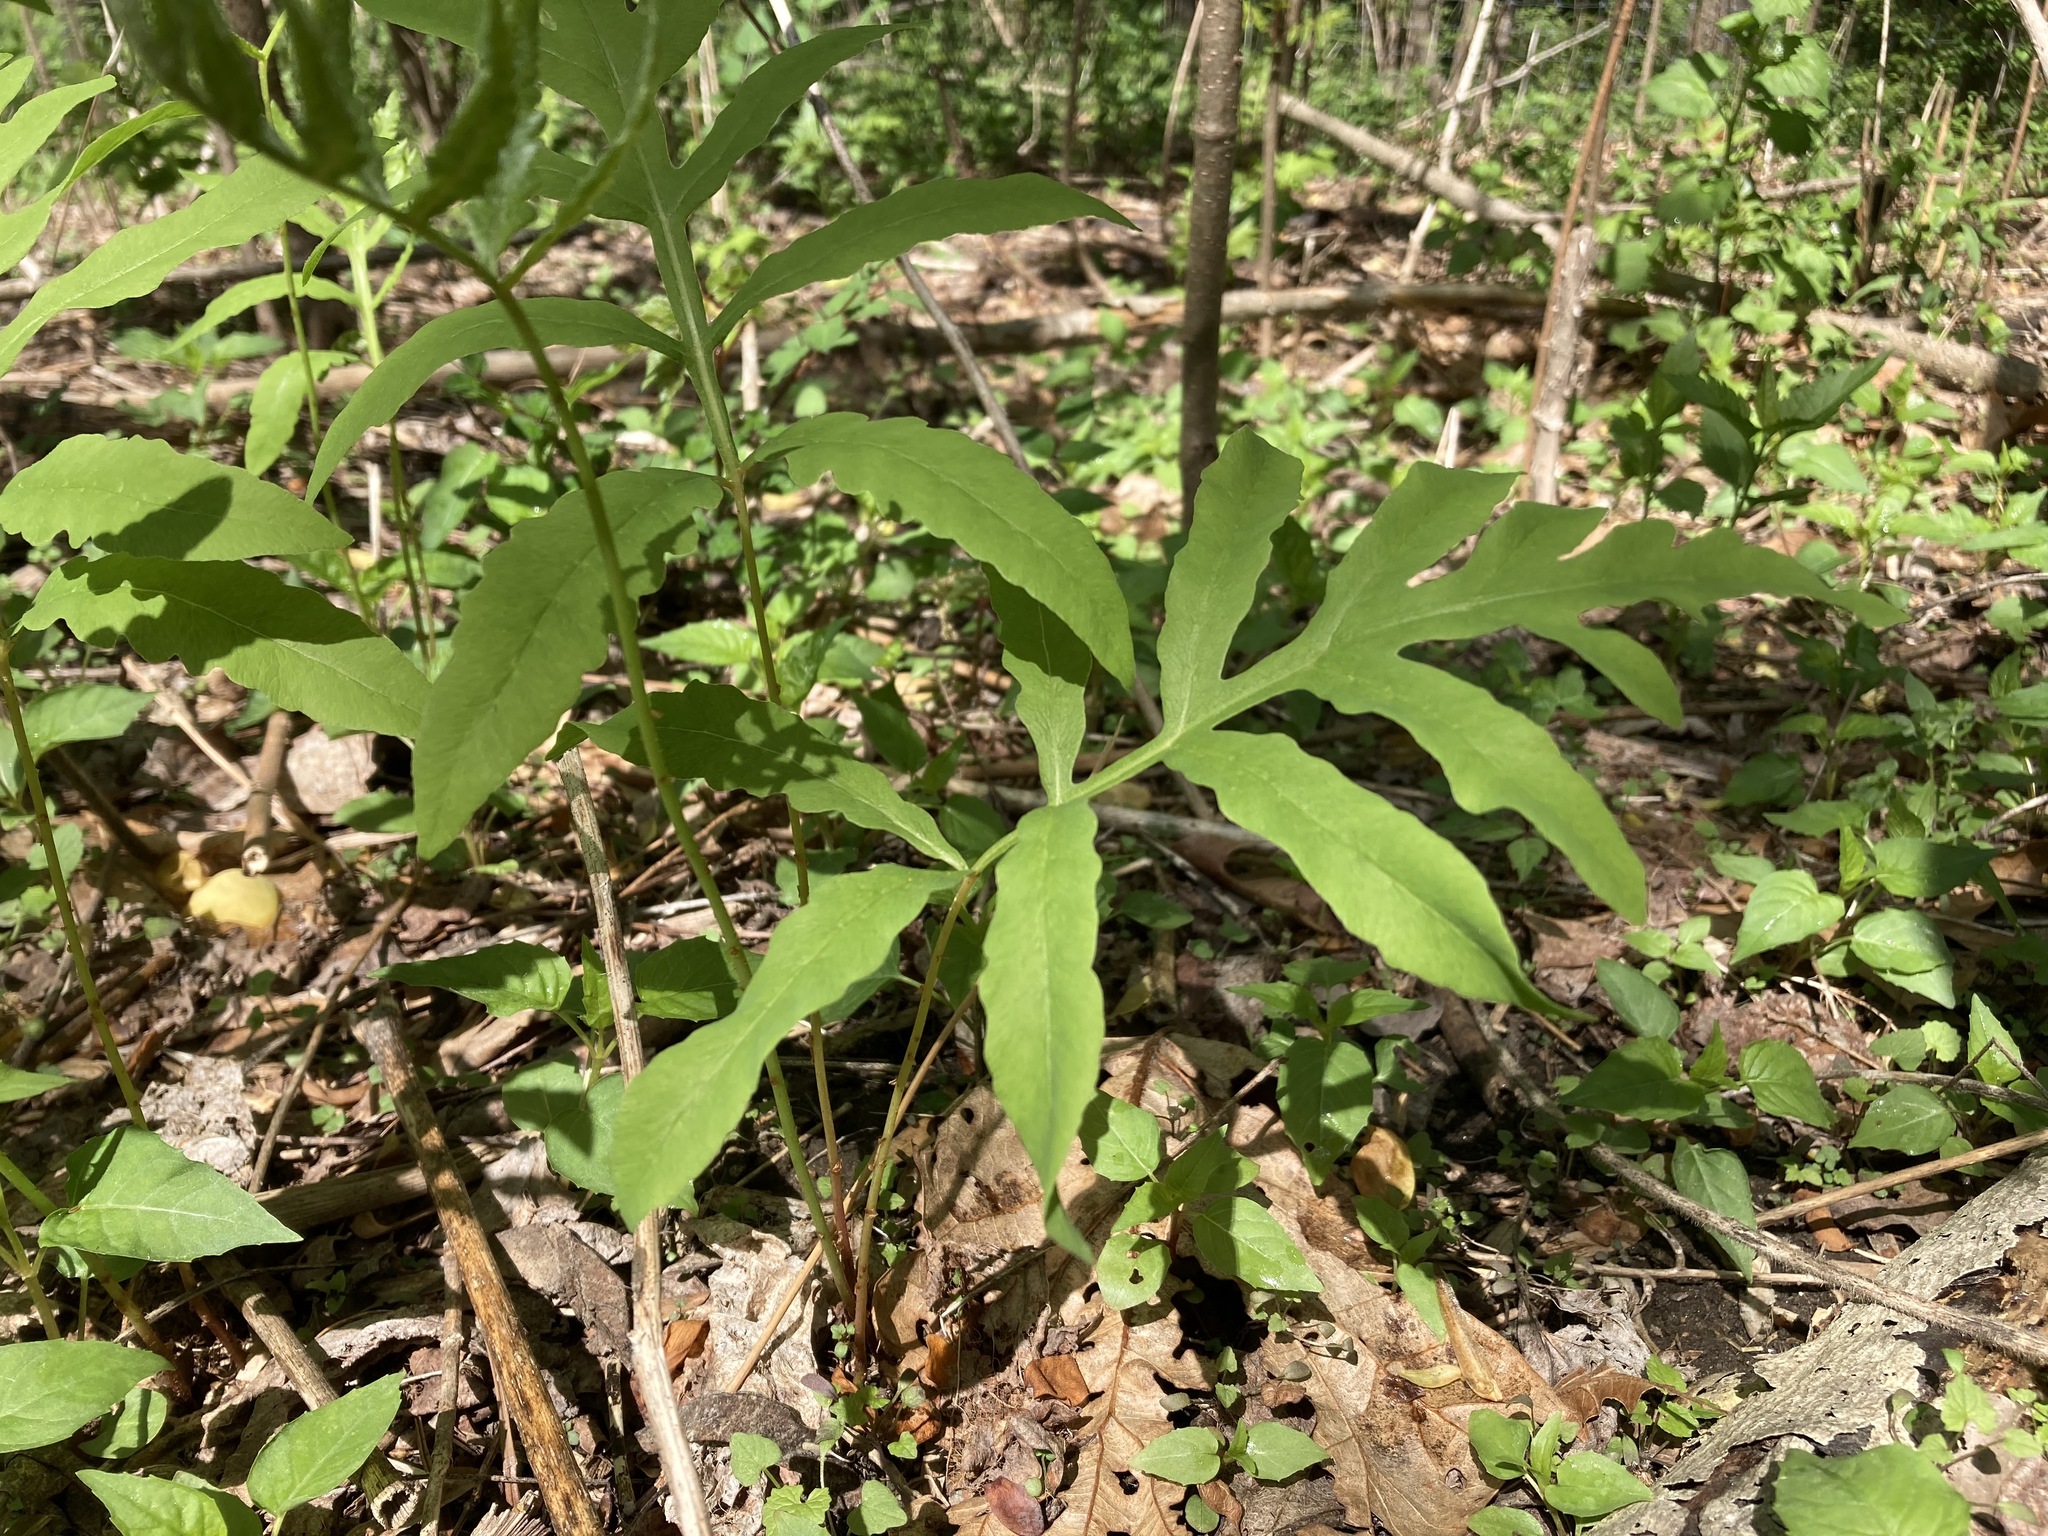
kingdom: Plantae
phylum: Tracheophyta
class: Polypodiopsida
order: Polypodiales
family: Onocleaceae
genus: Onoclea
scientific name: Onoclea sensibilis
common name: Sensitive fern
